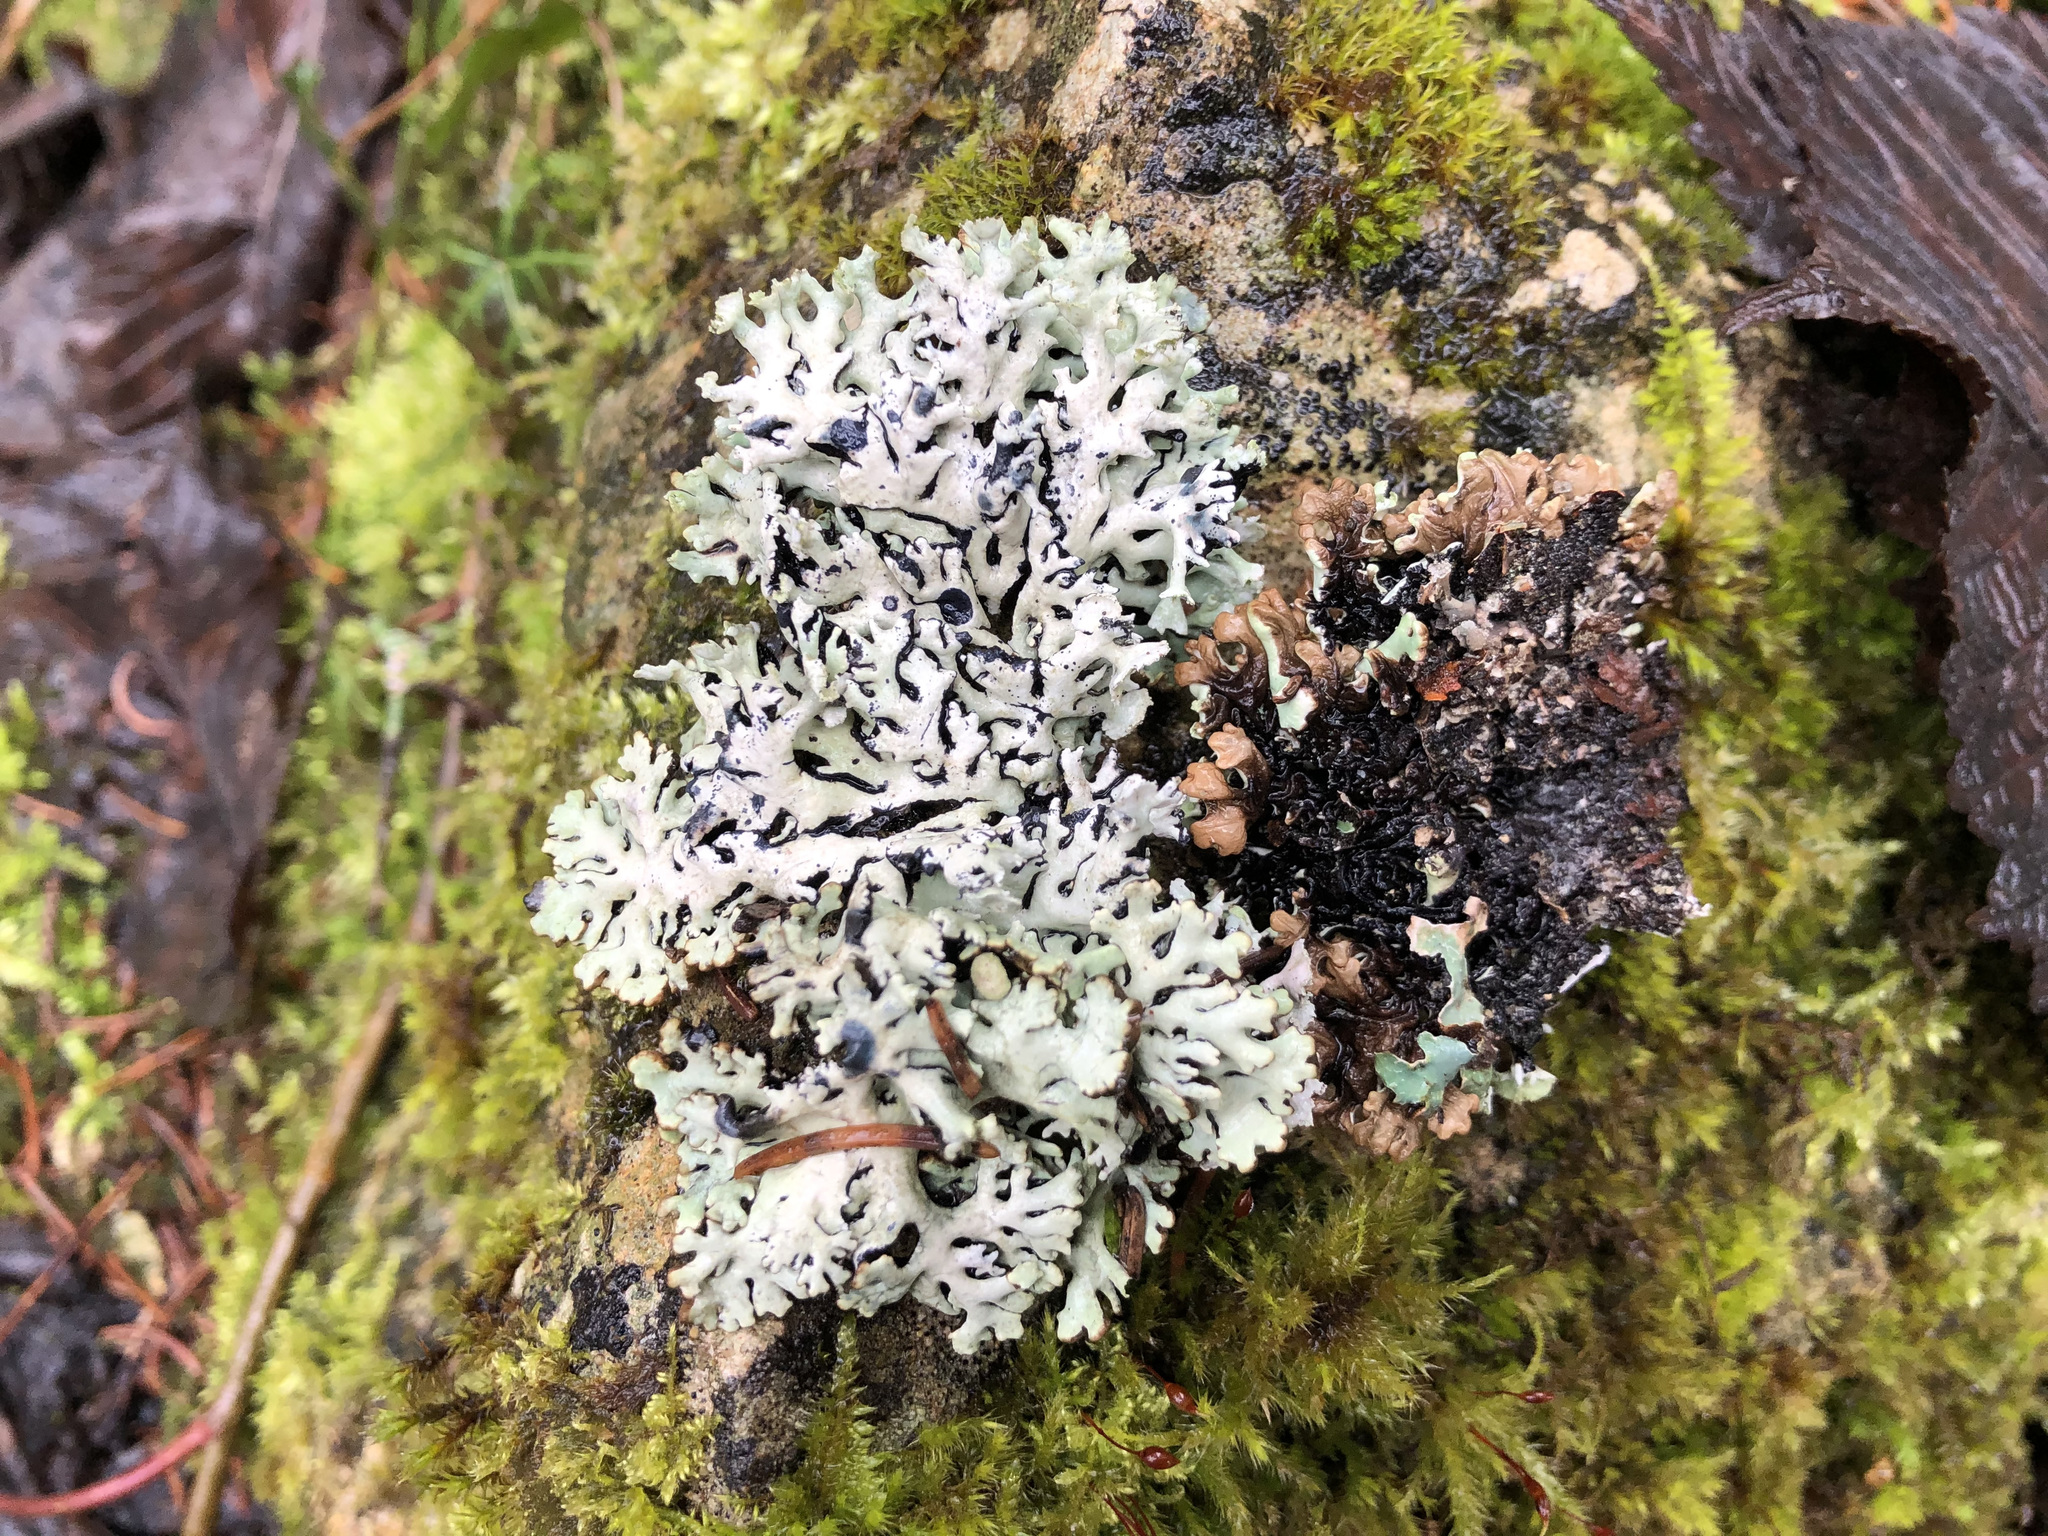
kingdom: Fungi
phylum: Ascomycota
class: Lecanoromycetes
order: Lecanorales
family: Parmeliaceae
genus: Hypogymnia
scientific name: Hypogymnia physodes
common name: Dark crottle
